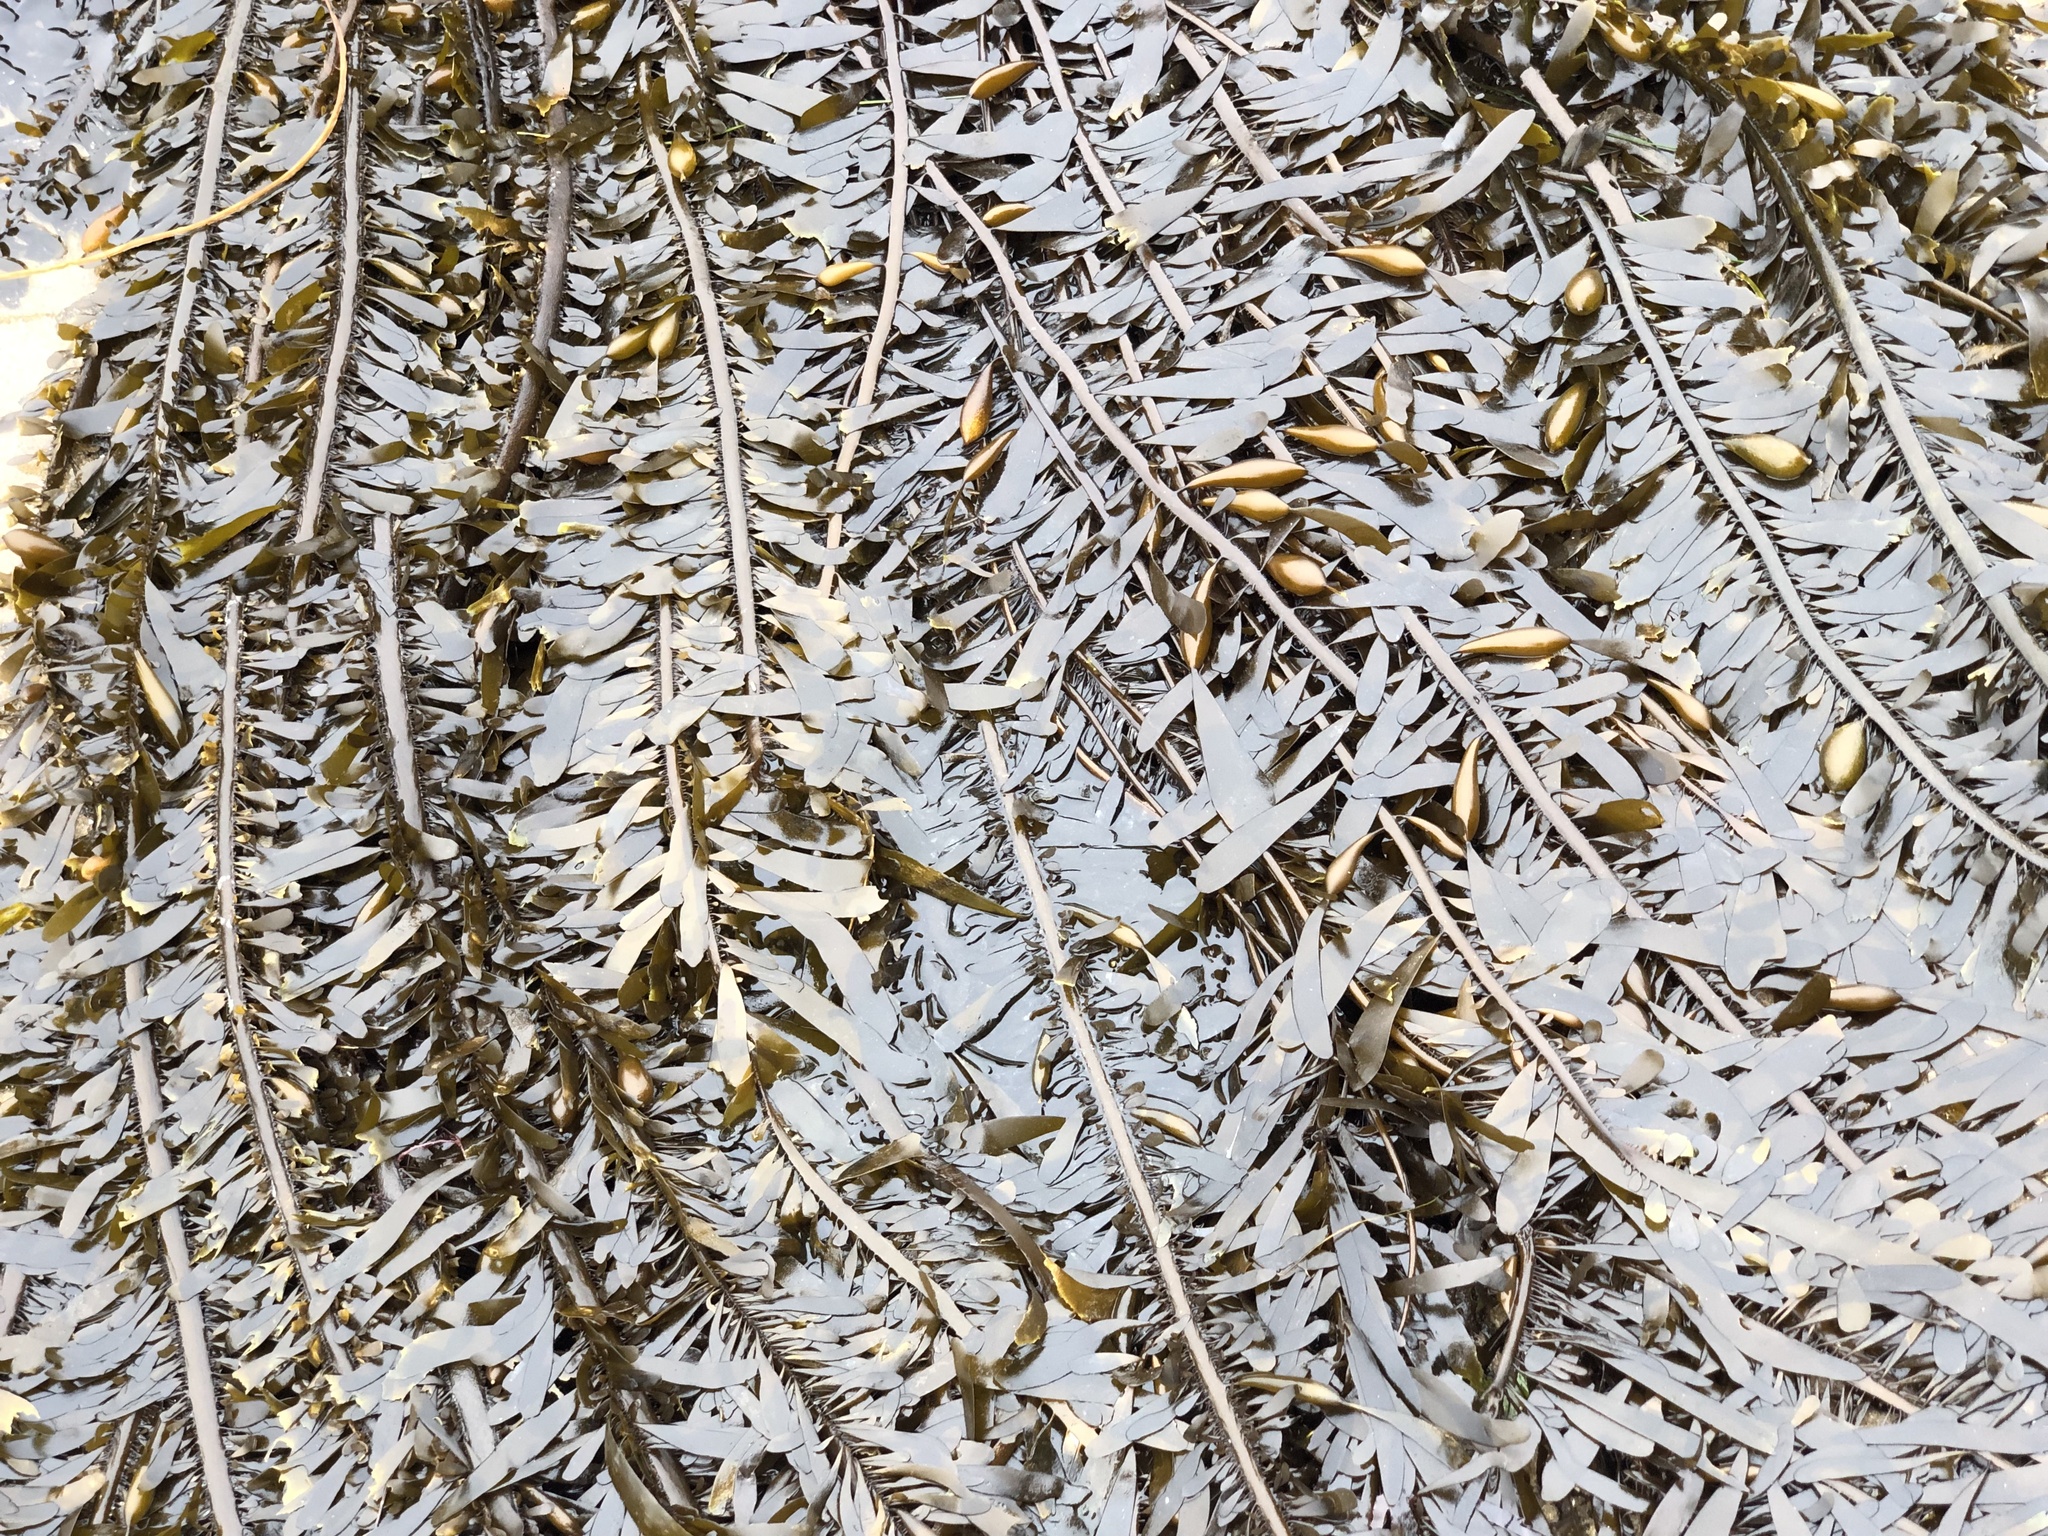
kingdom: Chromista
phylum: Ochrophyta
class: Phaeophyceae
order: Laminariales
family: Lessoniaceae
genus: Egregia
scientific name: Egregia menziesii
